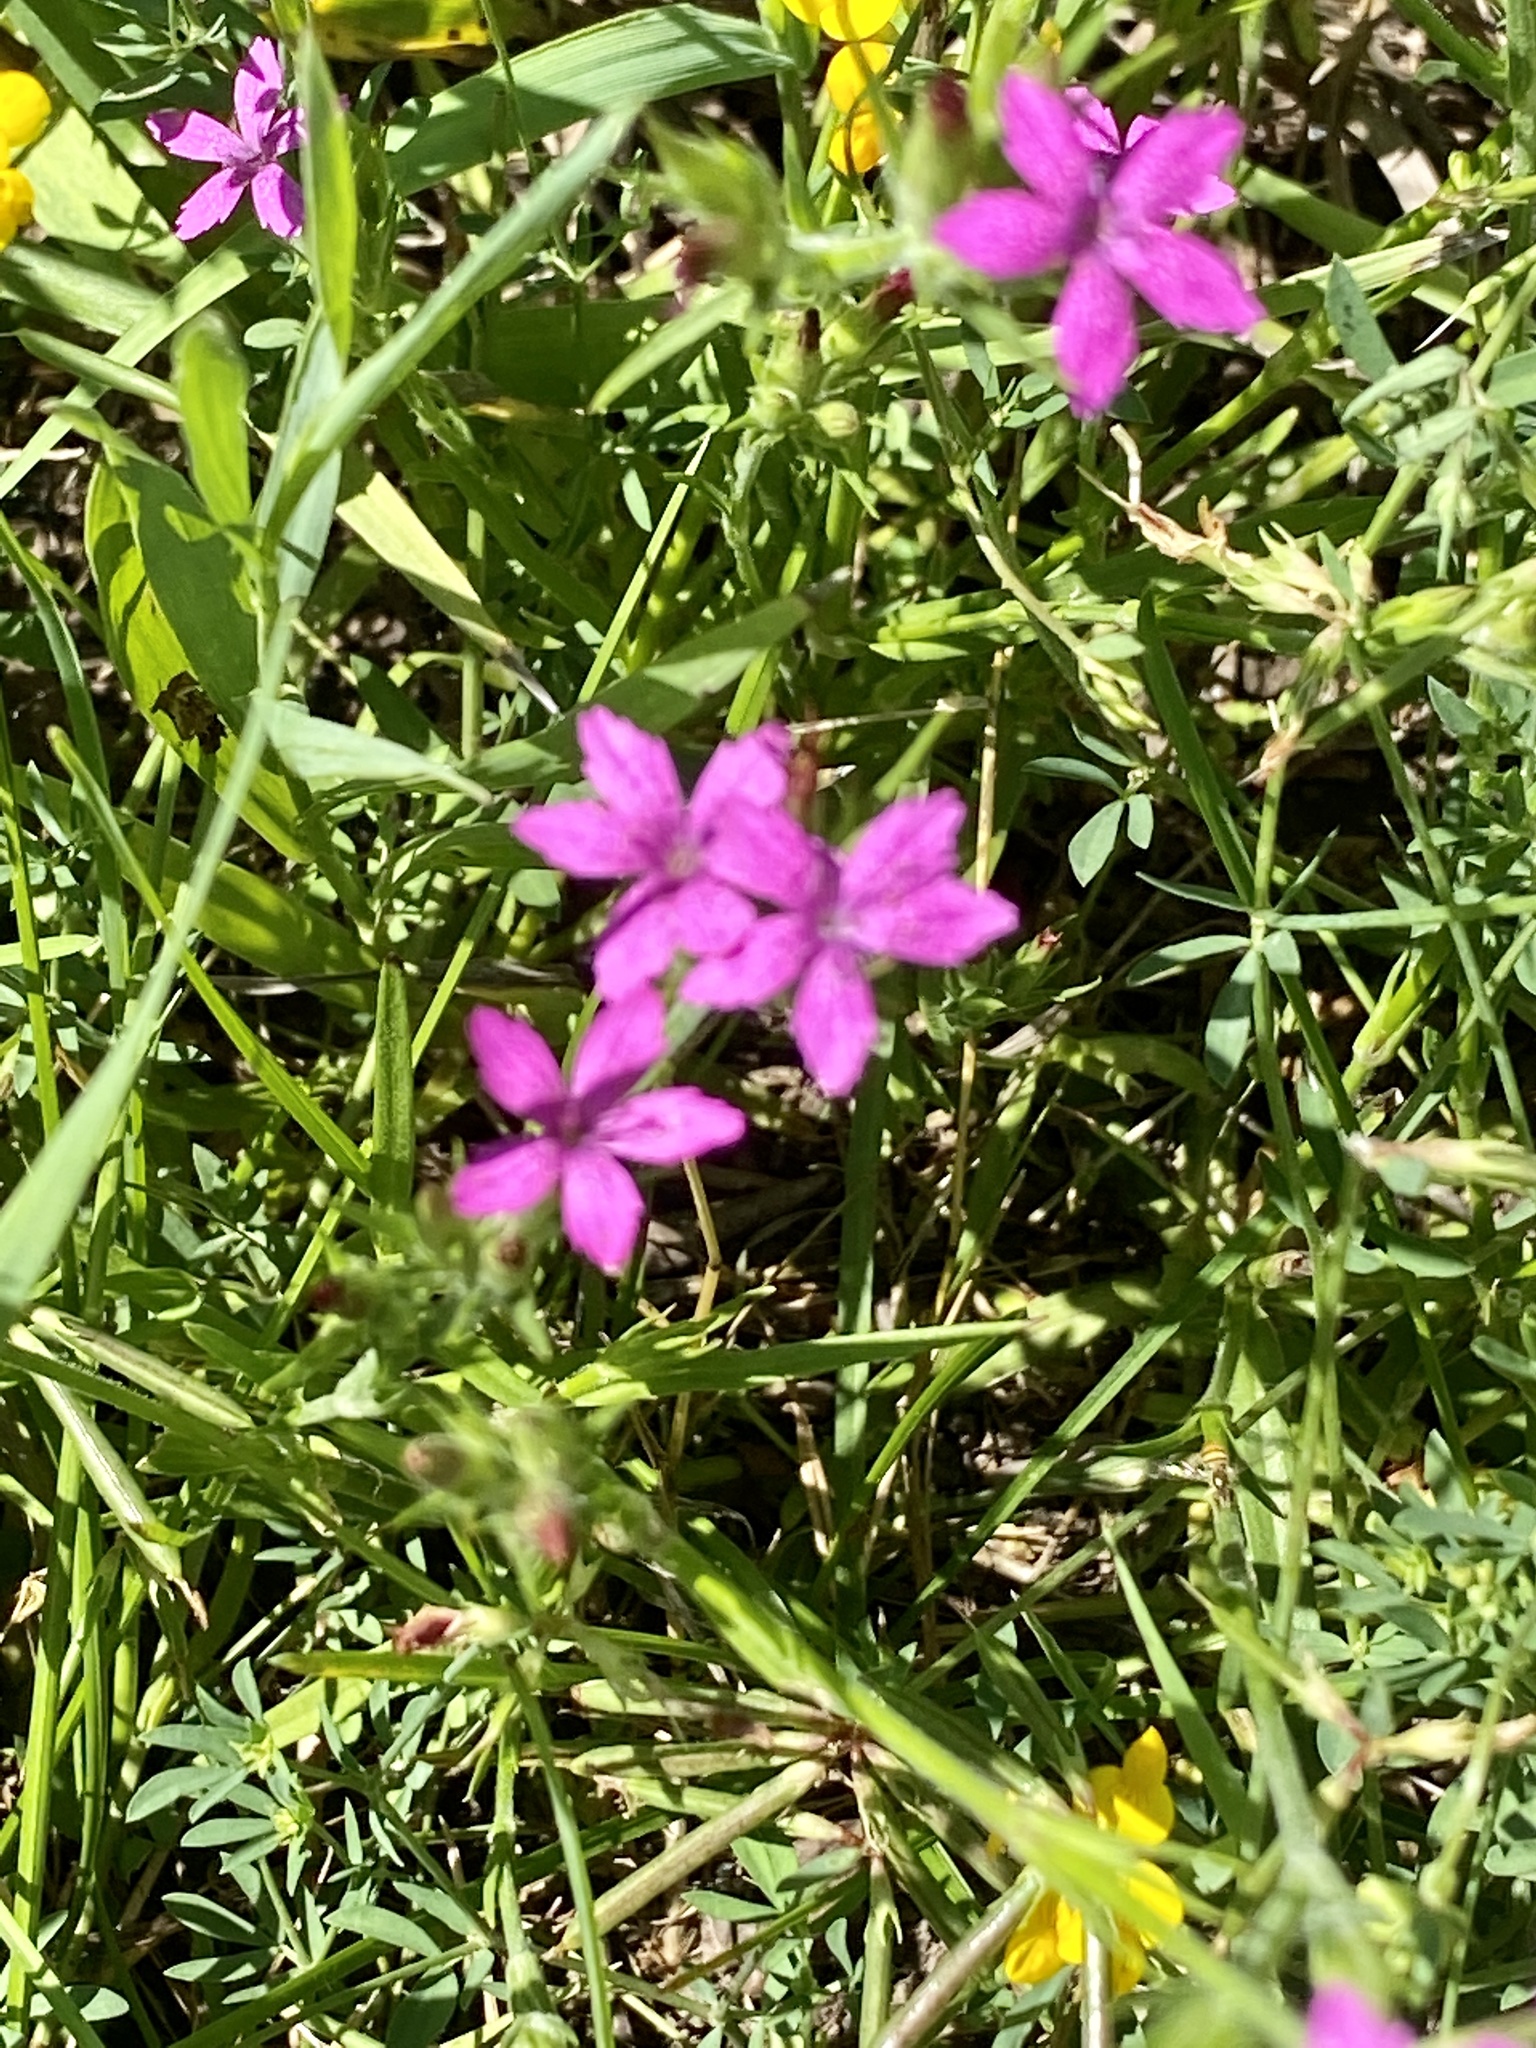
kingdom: Plantae
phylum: Tracheophyta
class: Magnoliopsida
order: Caryophyllales
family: Caryophyllaceae
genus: Dianthus
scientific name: Dianthus armeria
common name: Deptford pink
